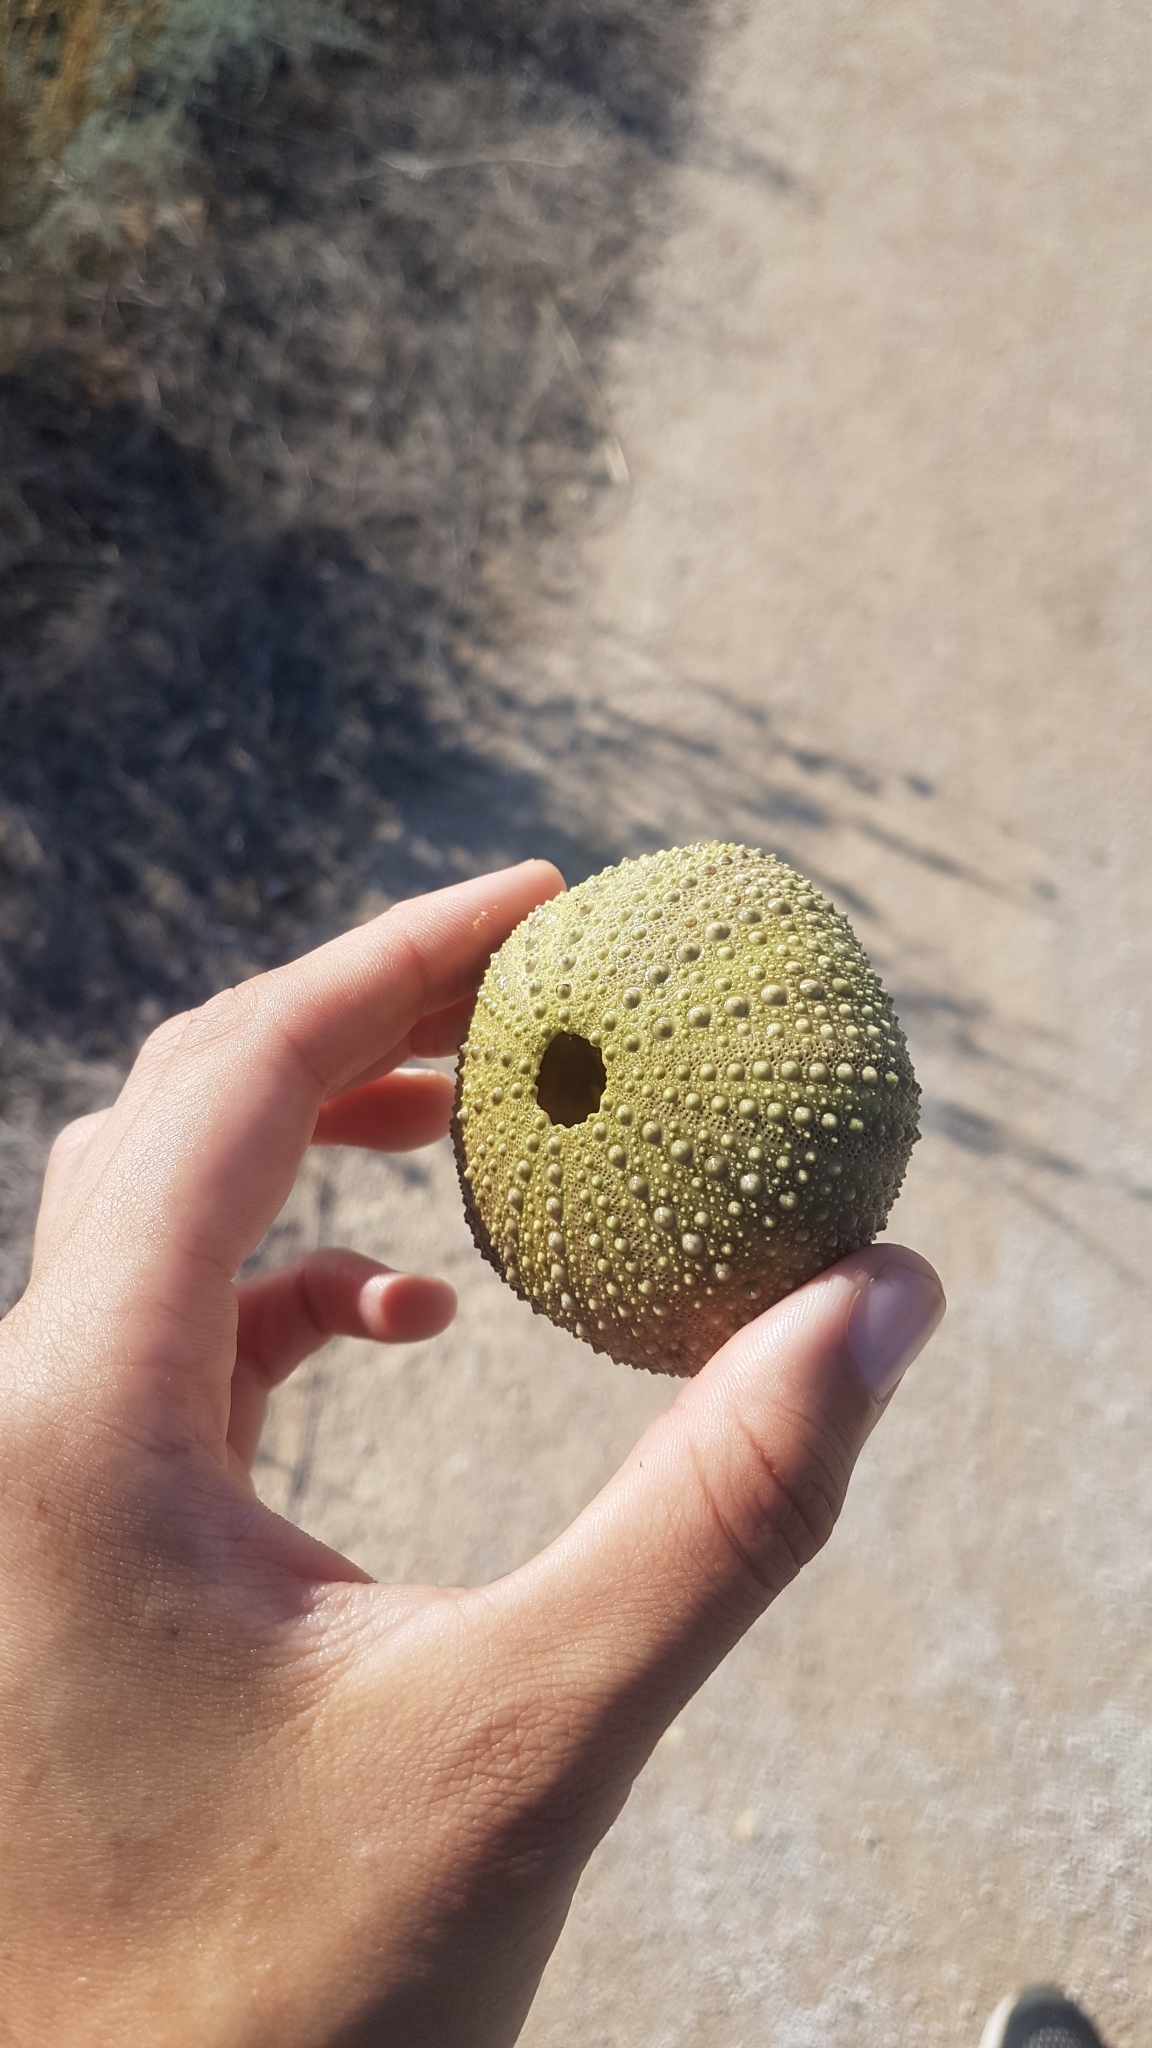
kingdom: Animalia
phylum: Echinodermata
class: Echinoidea
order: Camarodonta
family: Parechinidae
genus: Paracentrotus
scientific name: Paracentrotus lividus
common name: Purple sea urchin
